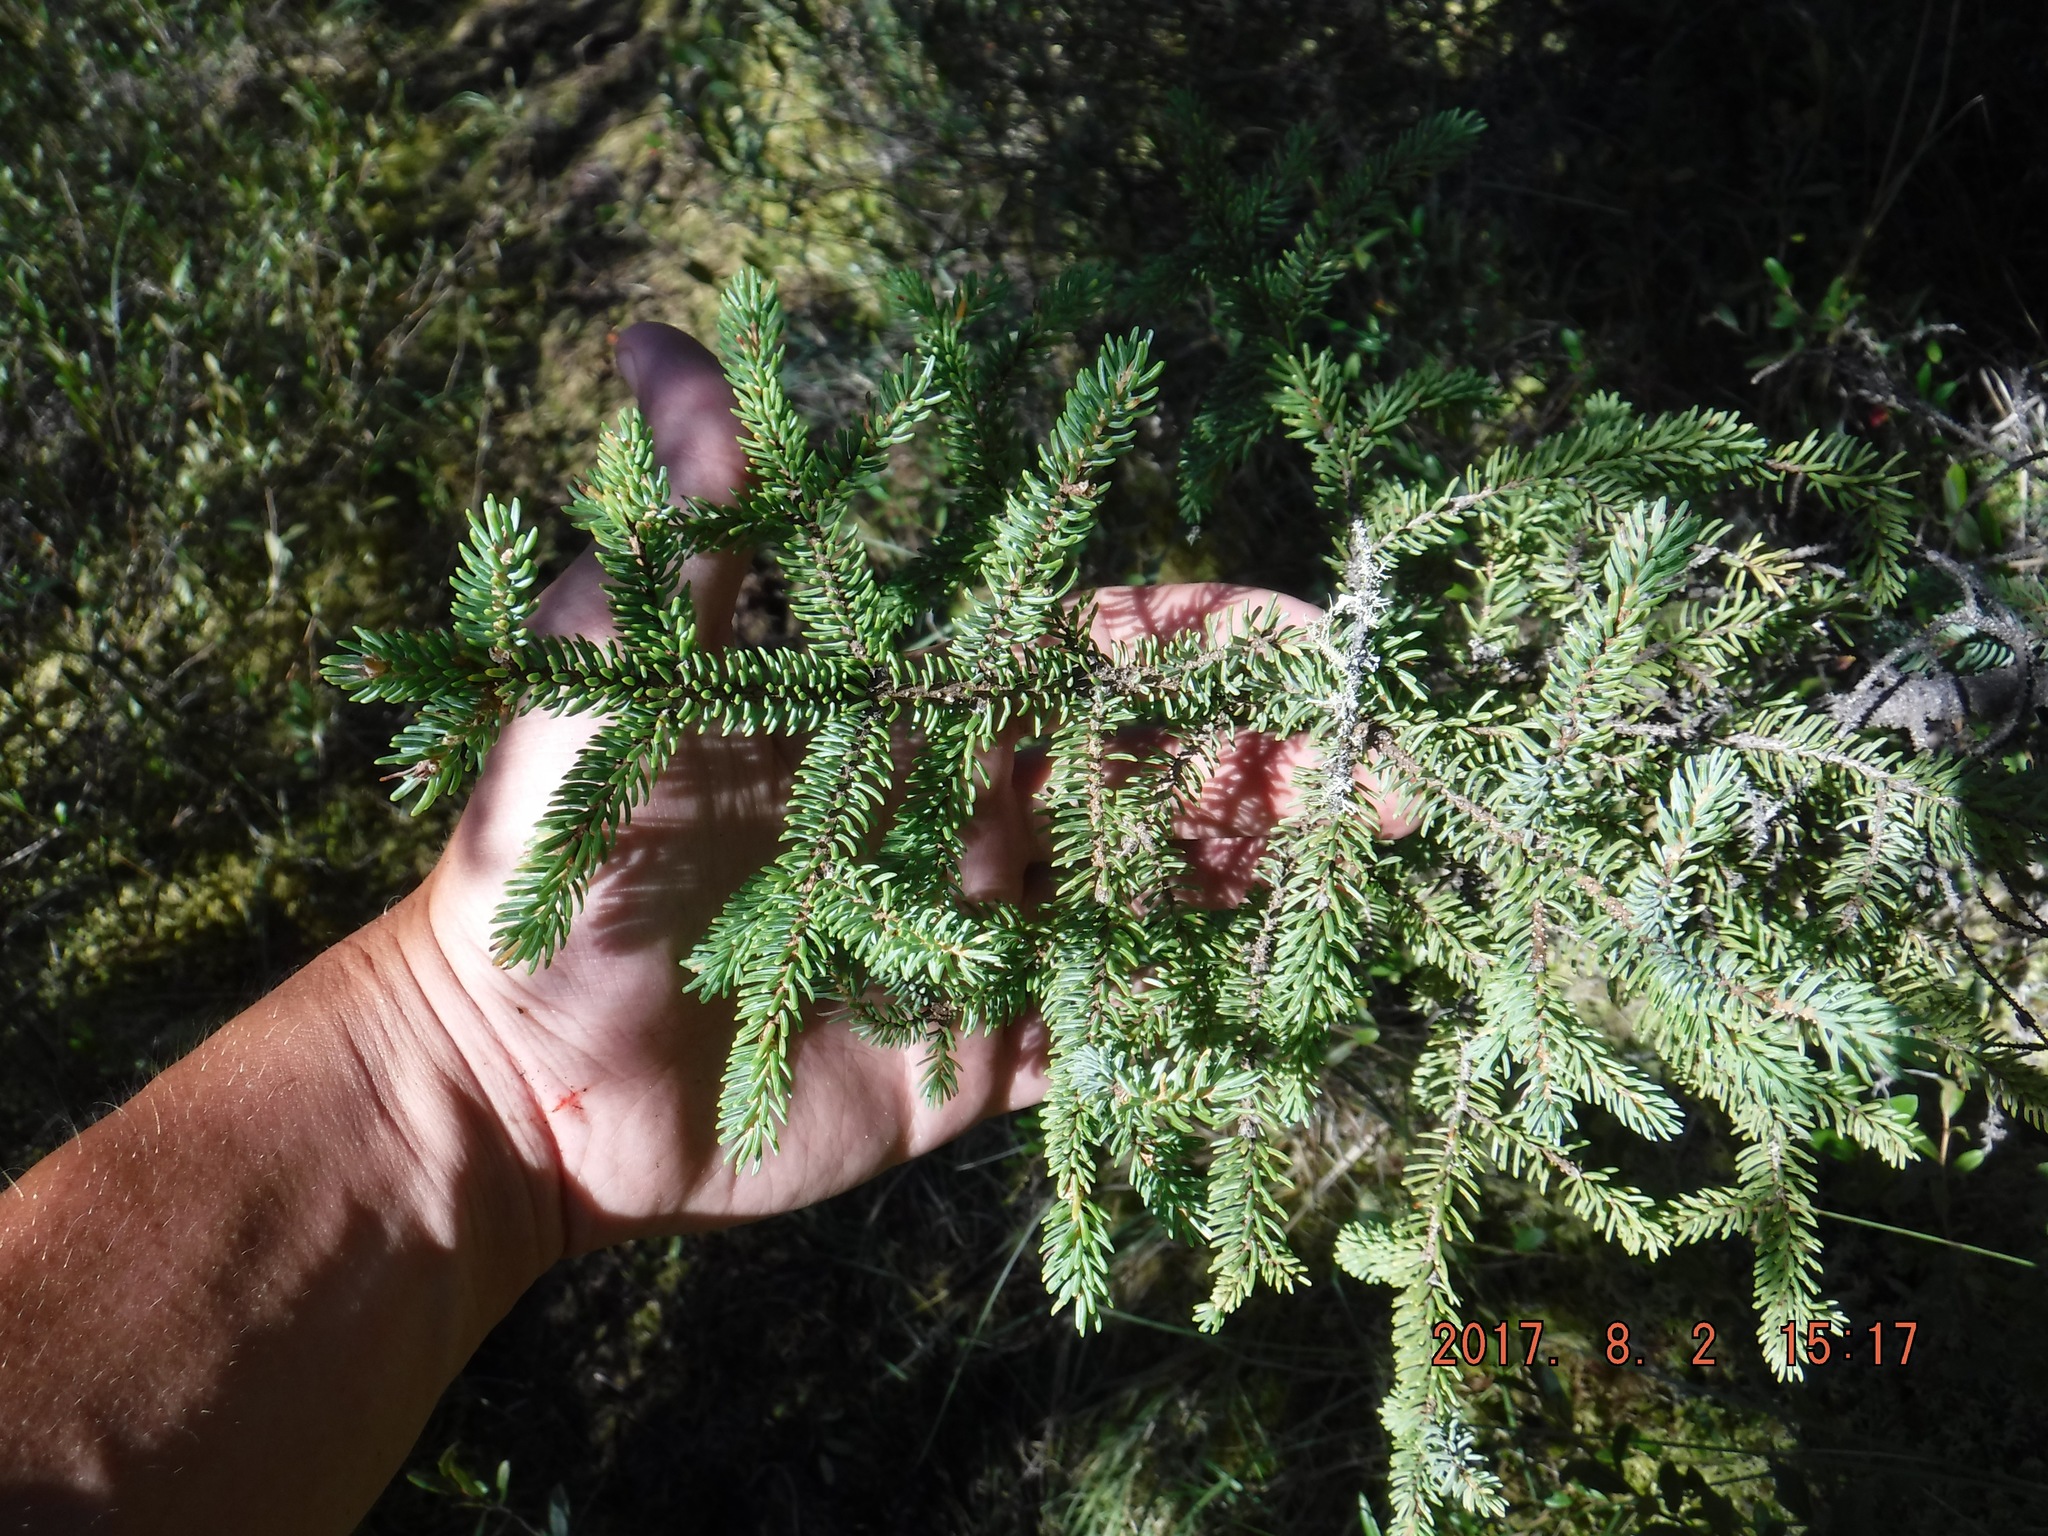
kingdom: Plantae
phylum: Tracheophyta
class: Pinopsida
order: Pinales
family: Pinaceae
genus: Picea
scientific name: Picea mariana
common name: Black spruce
